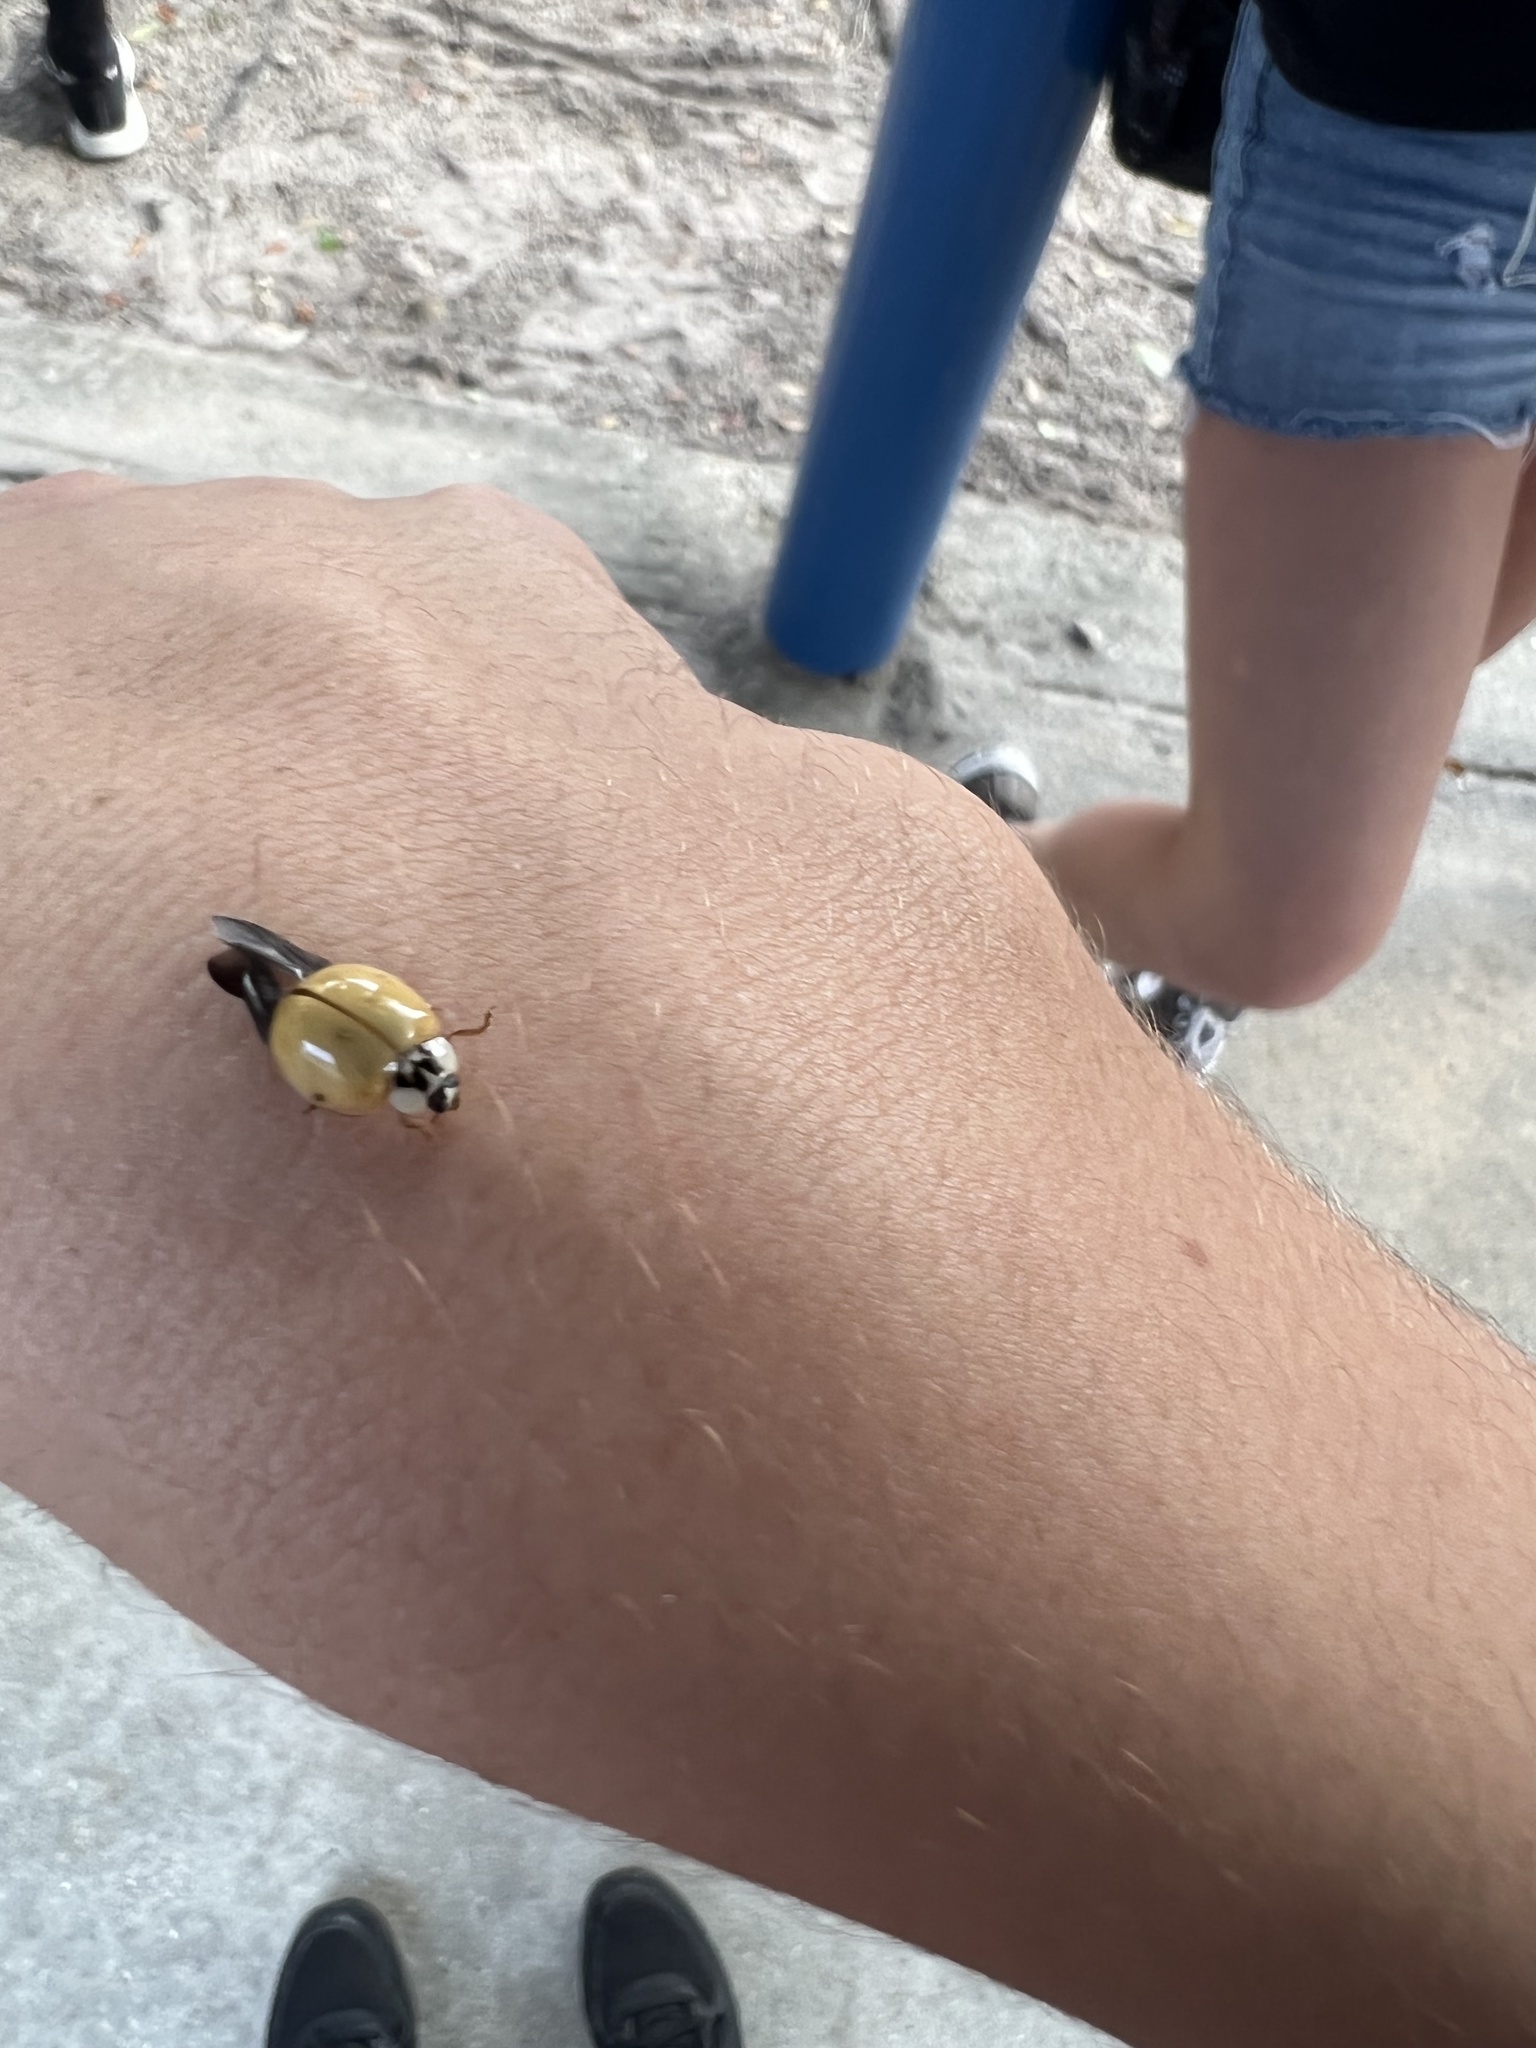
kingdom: Animalia
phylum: Arthropoda
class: Insecta
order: Coleoptera
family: Coccinellidae
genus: Harmonia
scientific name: Harmonia axyridis
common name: Harlequin ladybird
